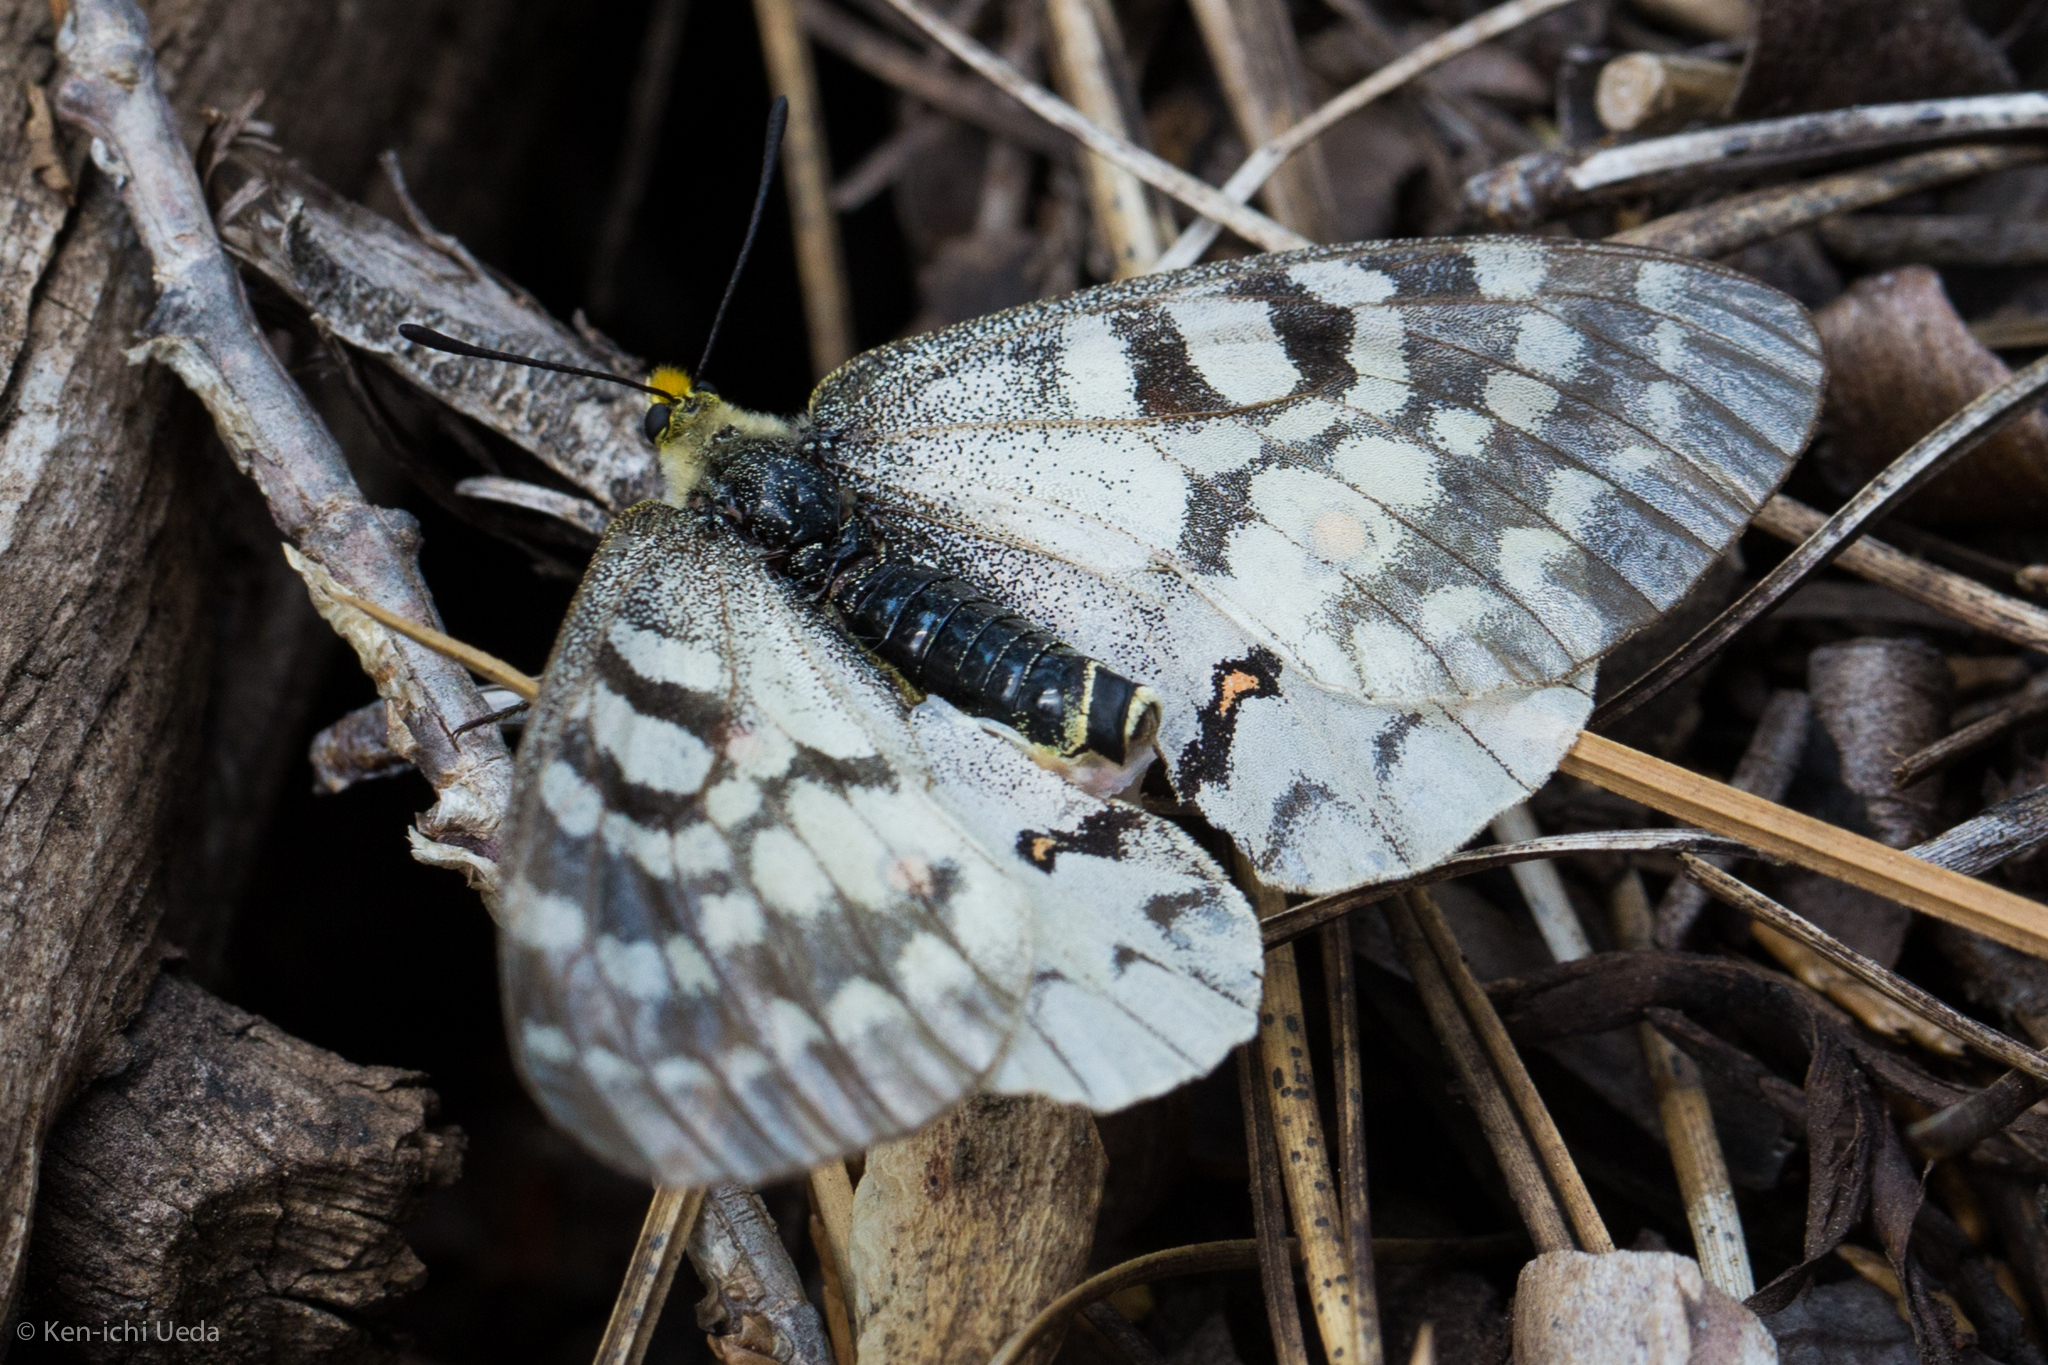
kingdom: Animalia
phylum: Arthropoda
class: Insecta
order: Lepidoptera
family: Papilionidae
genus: Parnassius
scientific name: Parnassius clodius
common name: American apollo
